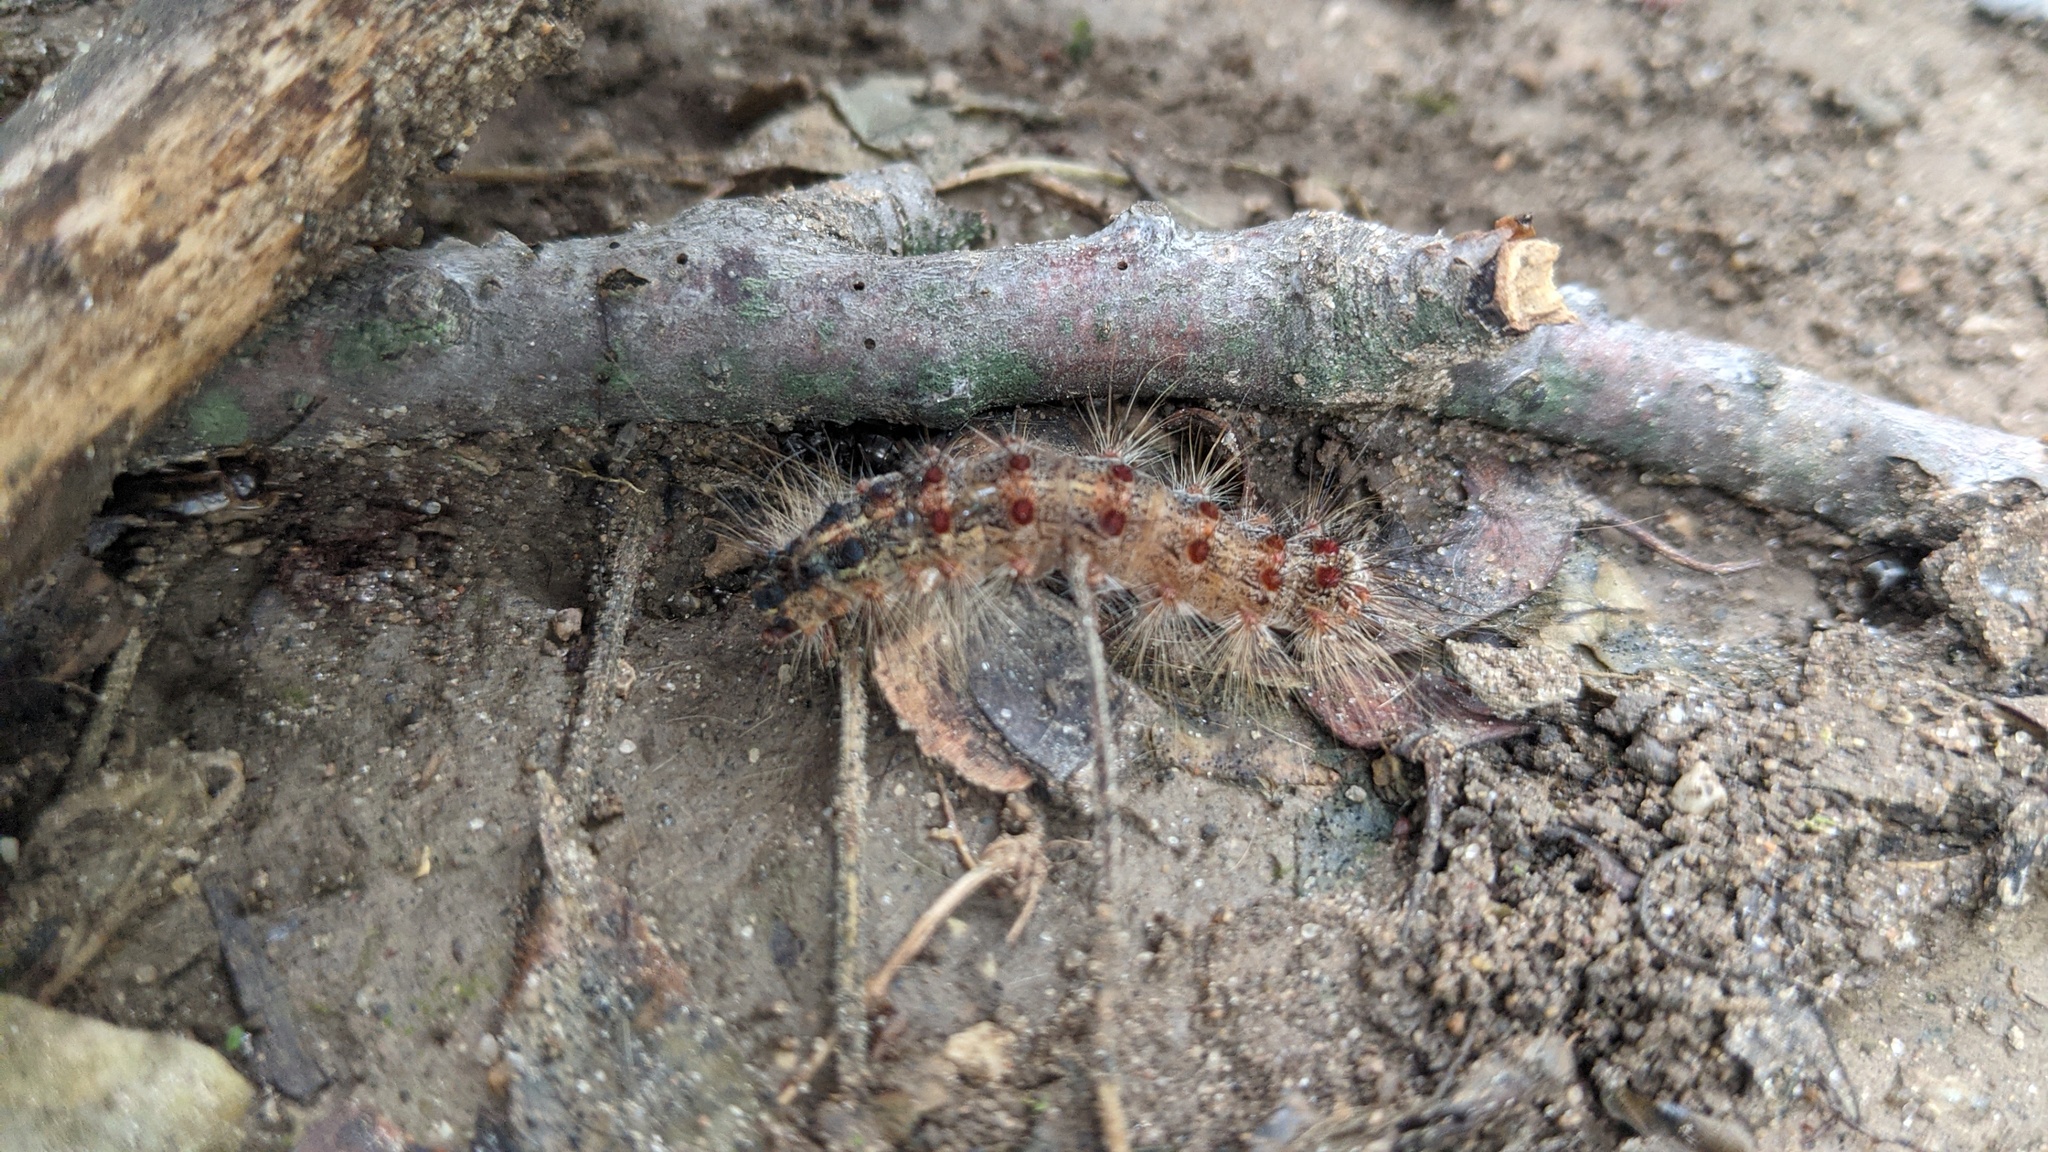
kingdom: Animalia
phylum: Arthropoda
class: Insecta
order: Lepidoptera
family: Erebidae
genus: Lymantria
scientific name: Lymantria dispar
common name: Gypsy moth
